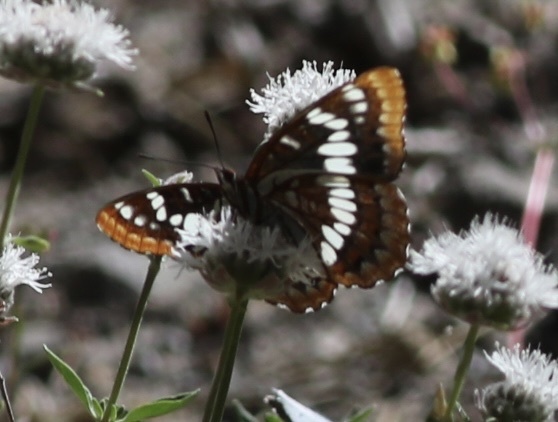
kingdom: Animalia
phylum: Arthropoda
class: Insecta
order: Lepidoptera
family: Nymphalidae
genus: Limenitis
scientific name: Limenitis lorquini
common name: Lorquin's admiral
